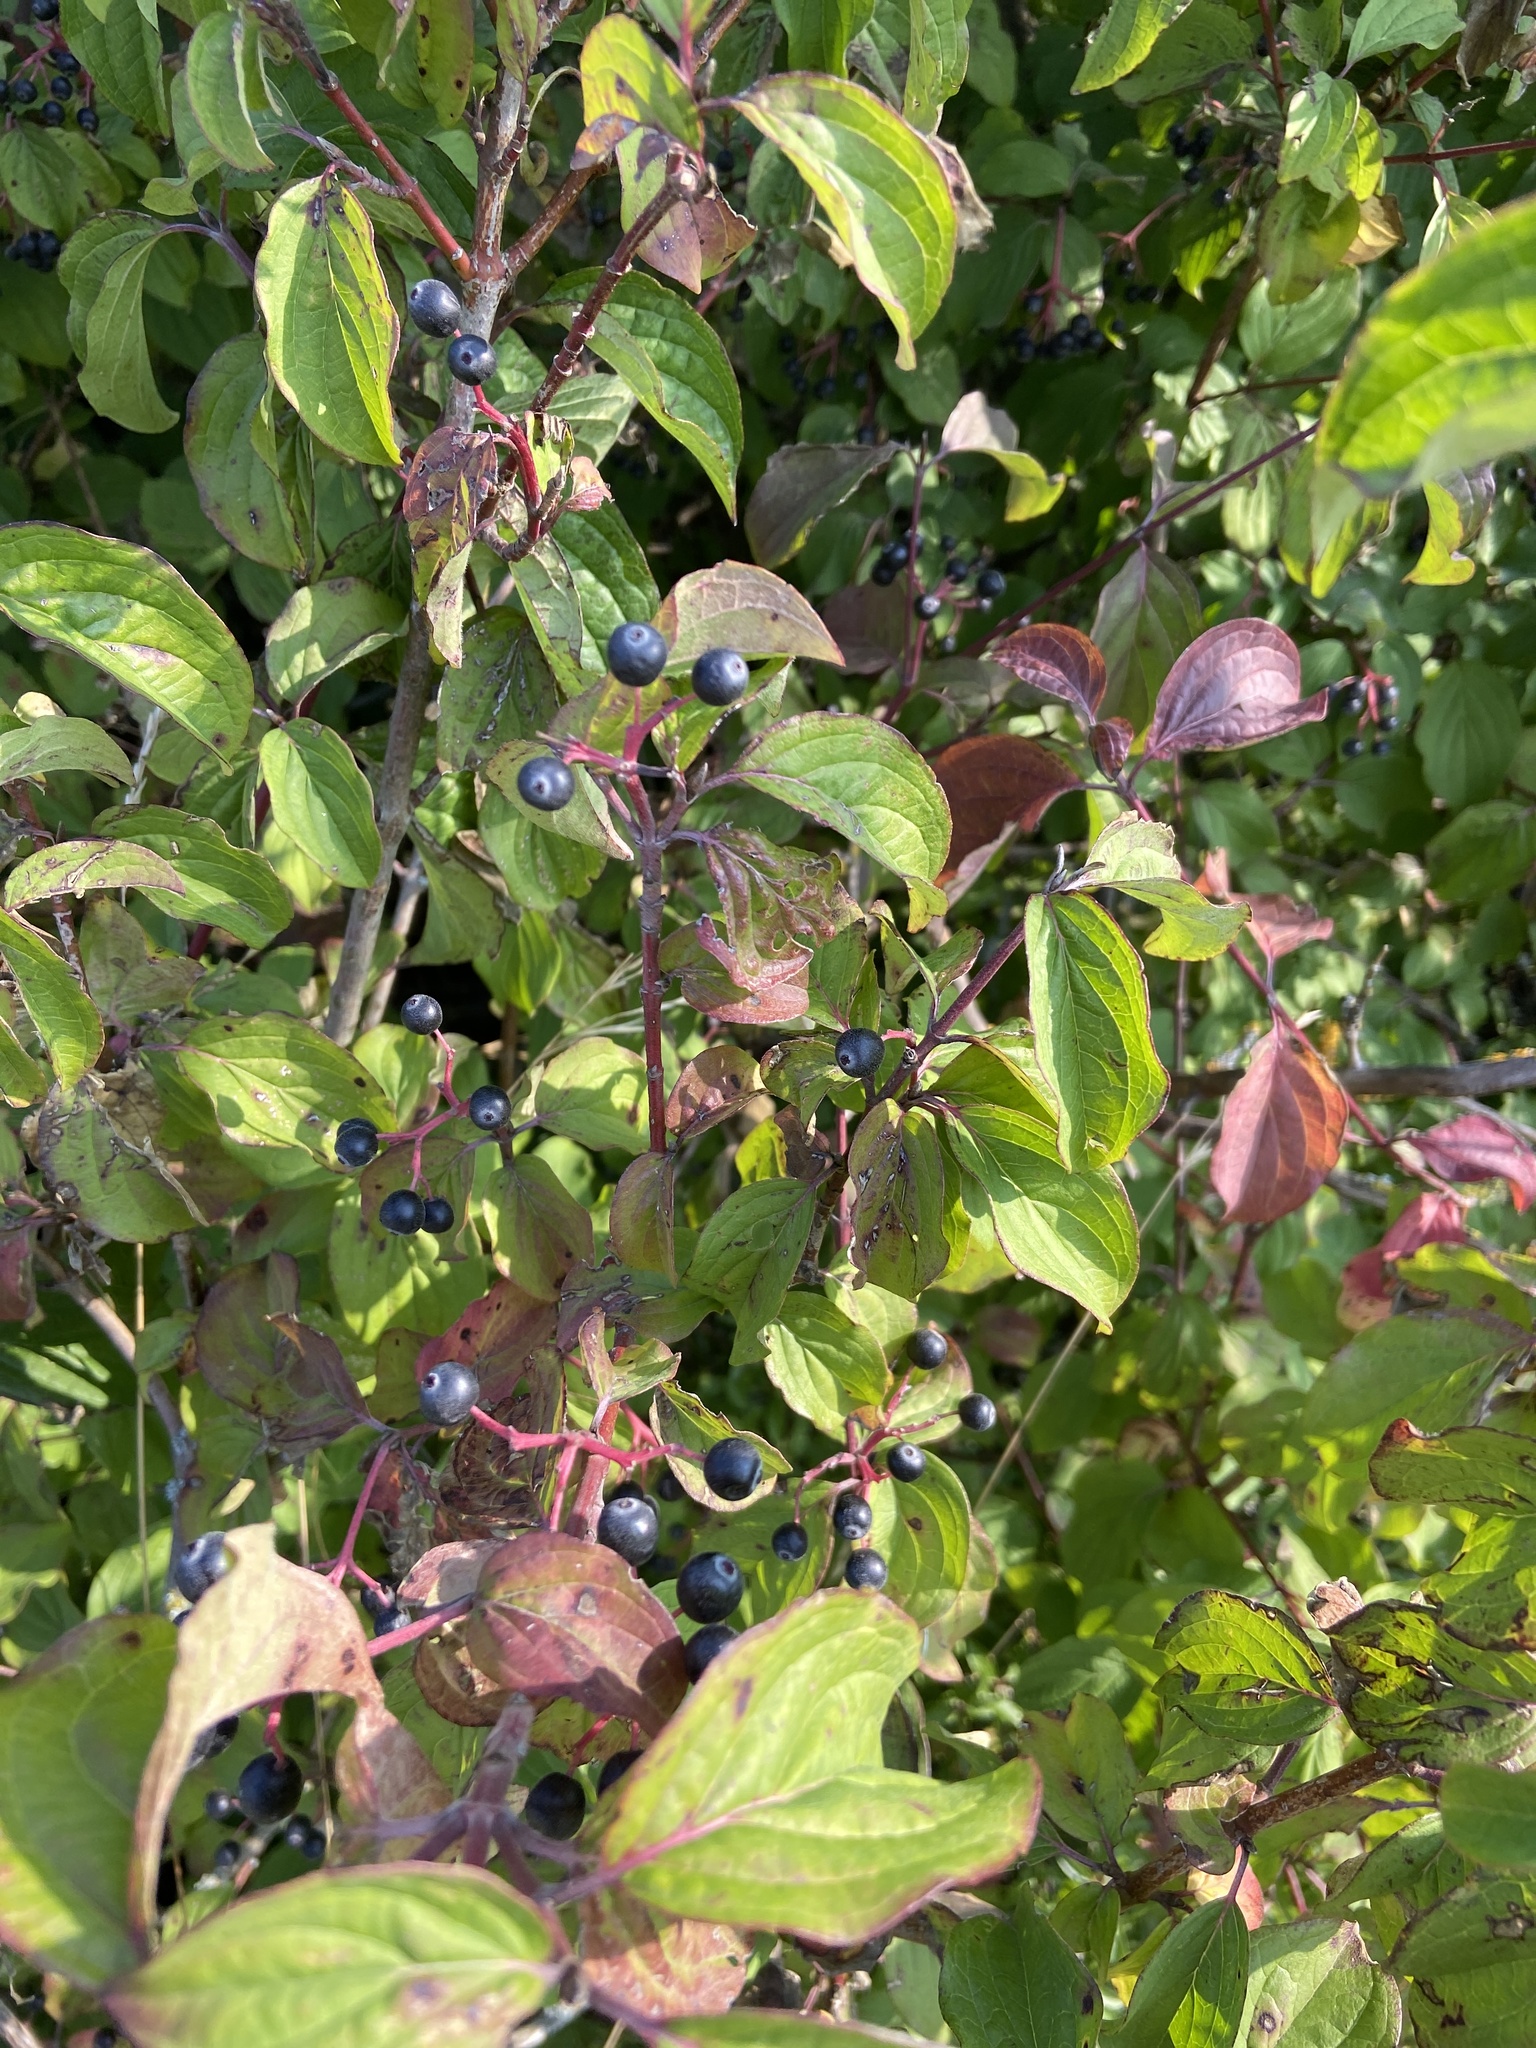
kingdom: Plantae
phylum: Tracheophyta
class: Magnoliopsida
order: Cornales
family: Cornaceae
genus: Cornus
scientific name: Cornus sanguinea
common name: Dogwood
